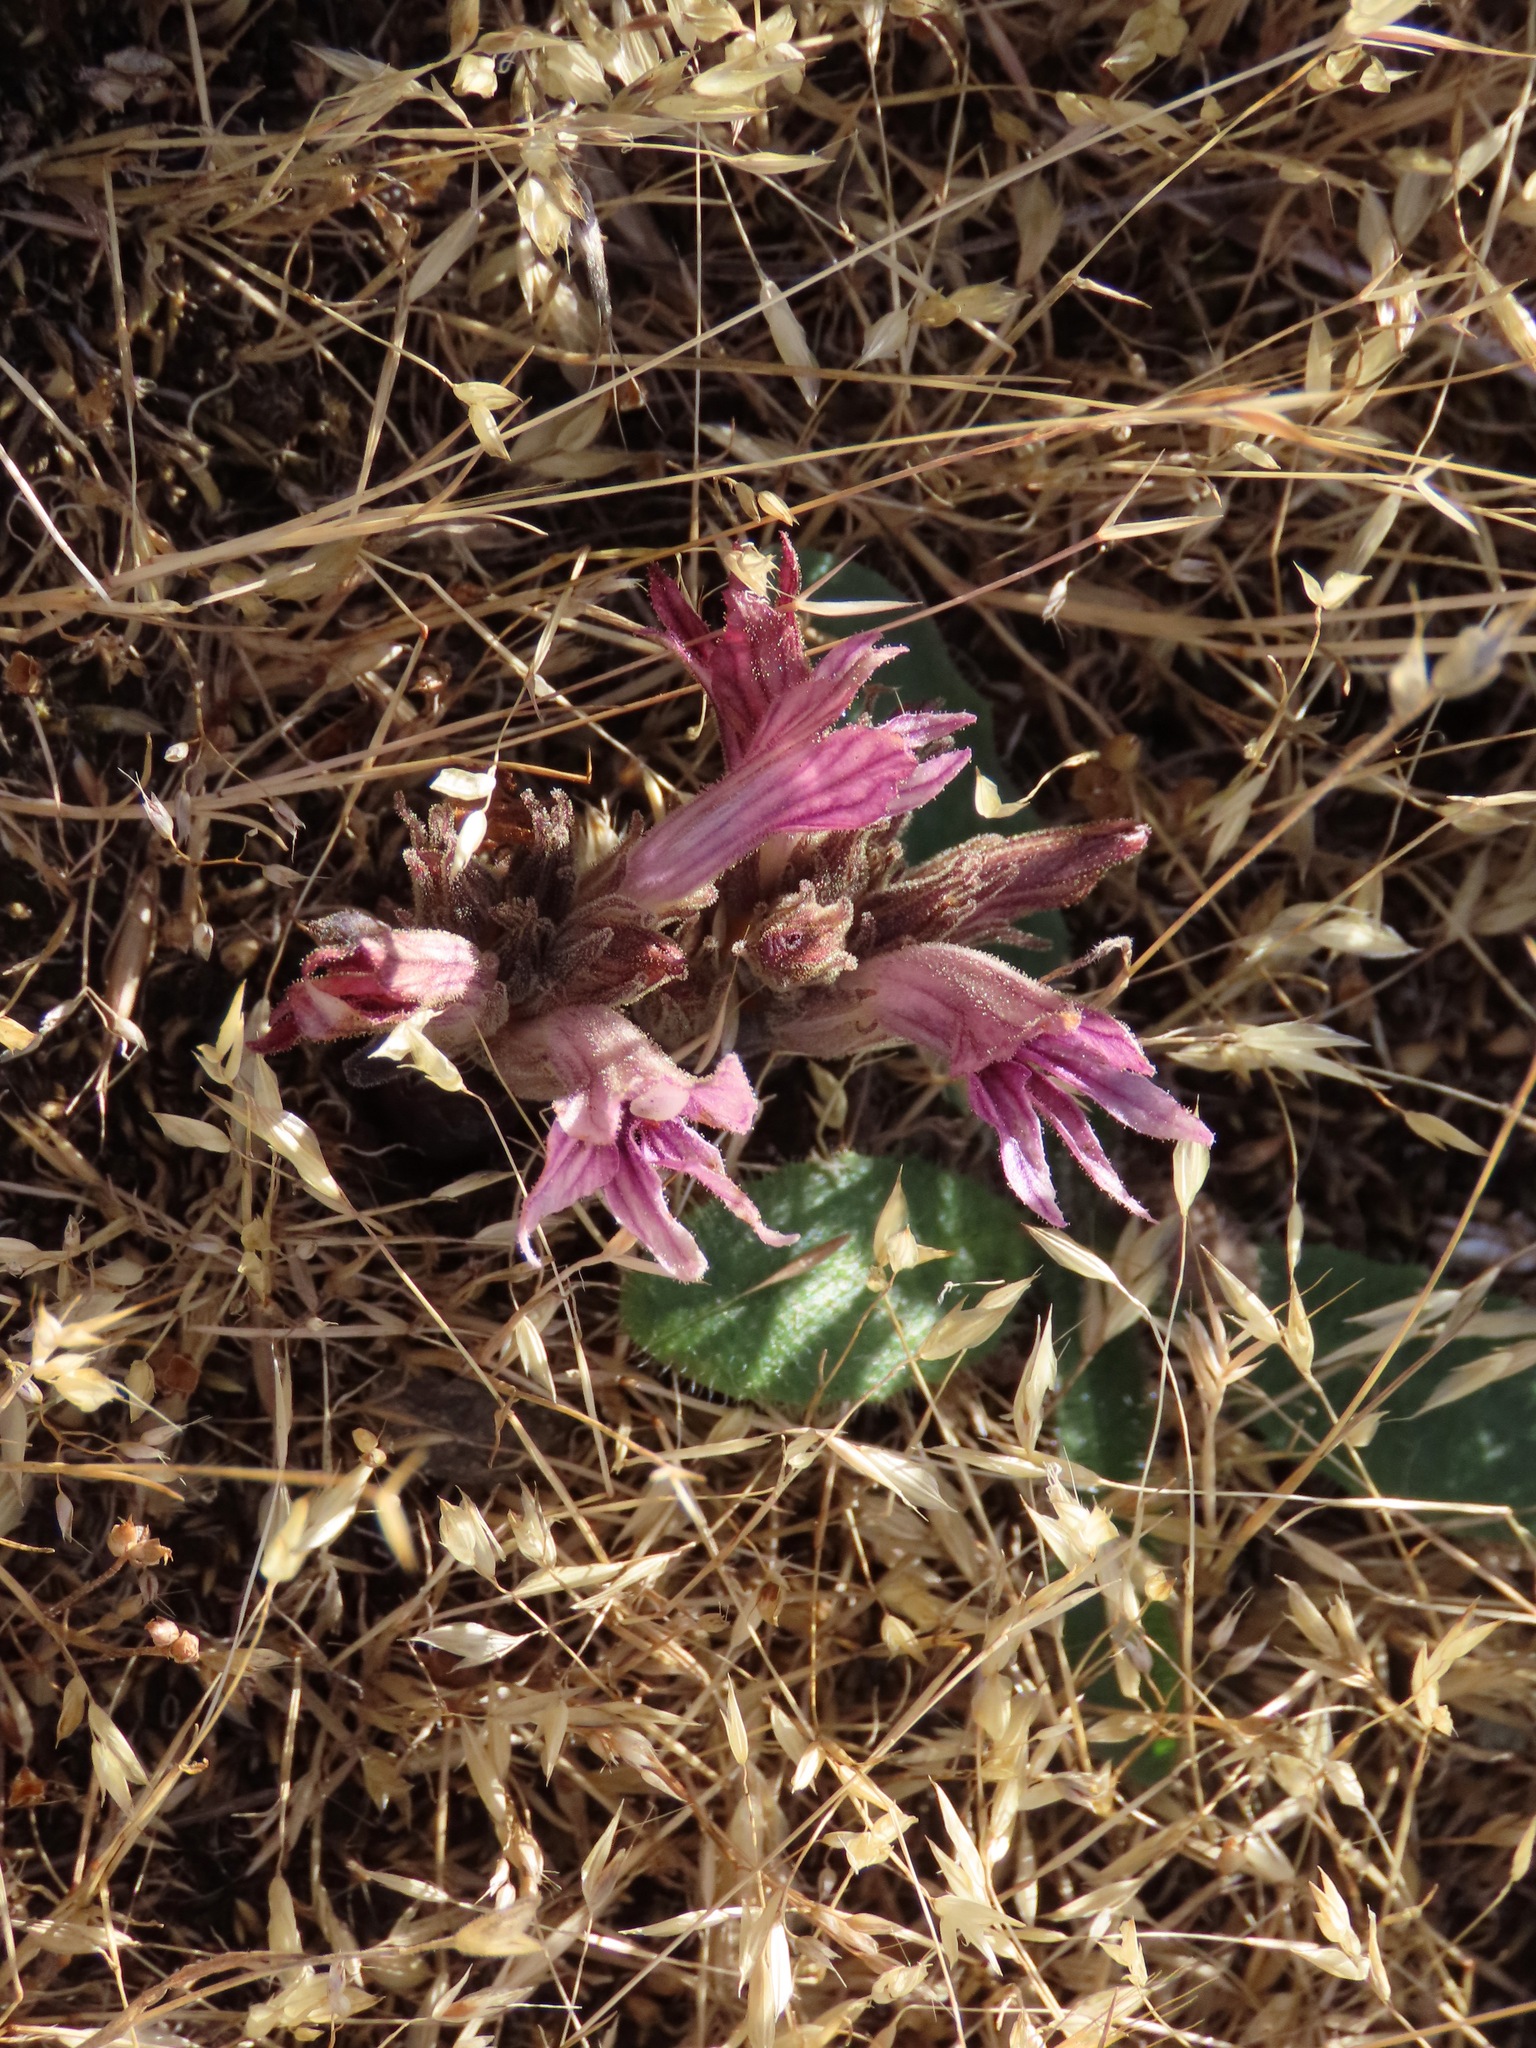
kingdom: Plantae
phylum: Tracheophyta
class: Magnoliopsida
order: Lamiales
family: Orobanchaceae
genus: Aphyllon
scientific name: Aphyllon californicum
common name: California broomrape
